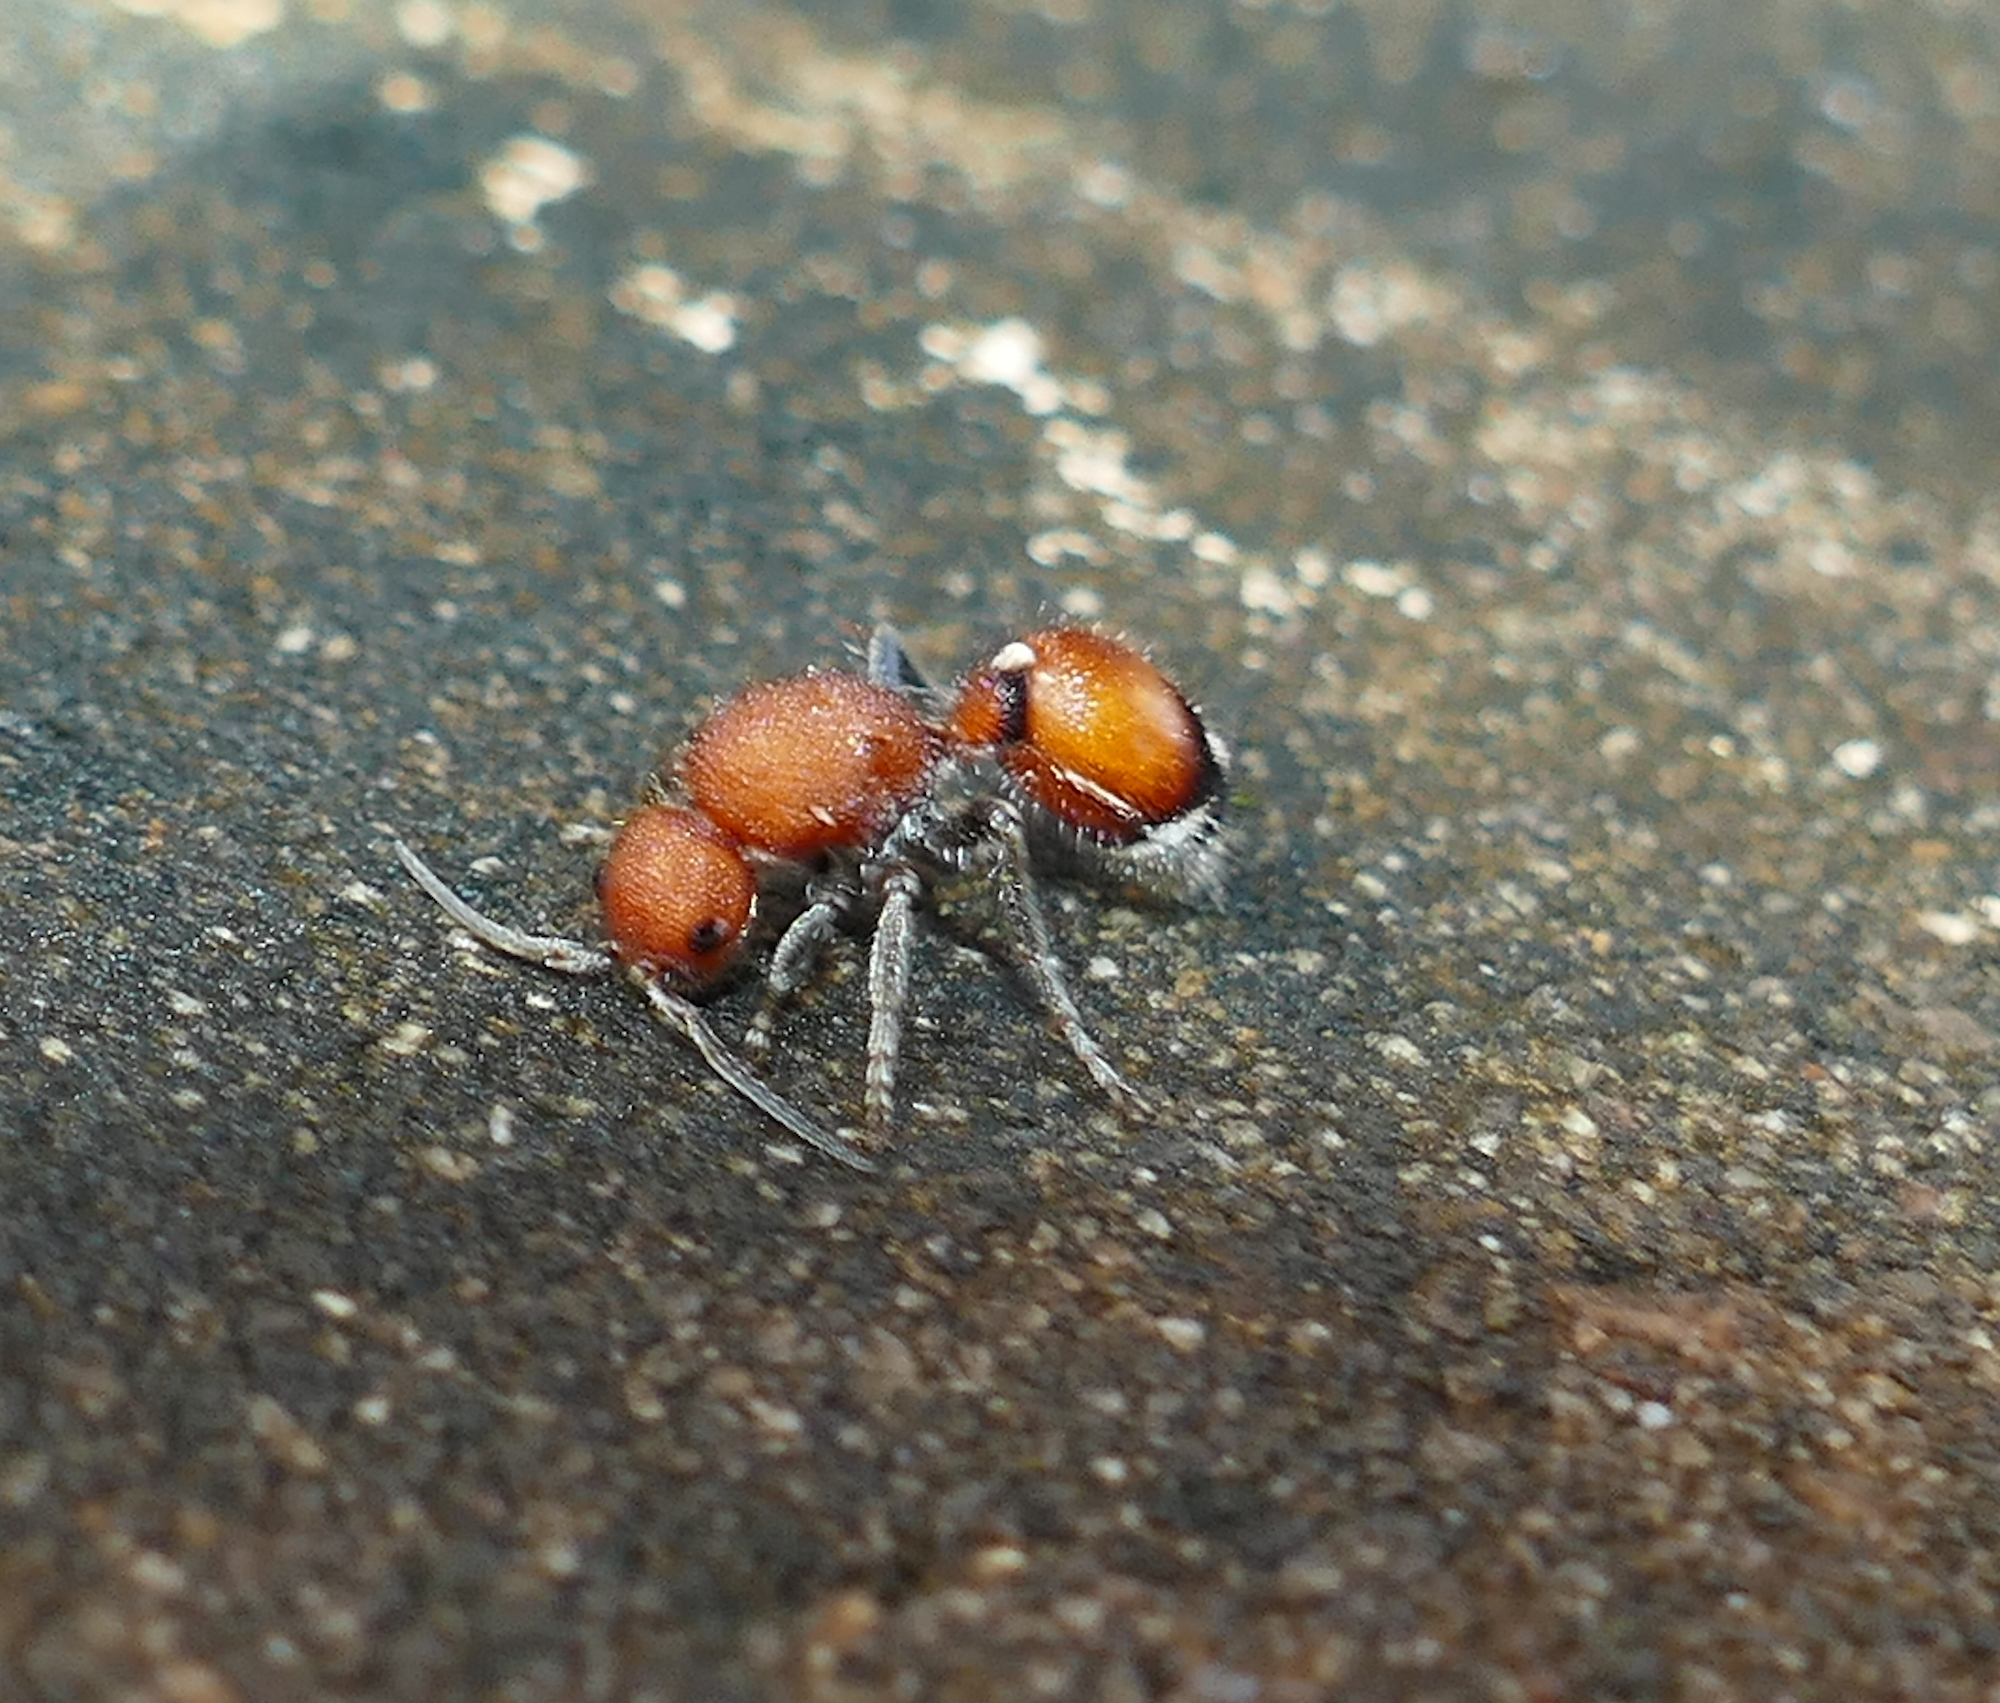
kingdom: Animalia
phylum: Arthropoda
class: Insecta
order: Hymenoptera
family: Mutillidae
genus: Sphaeropthalma
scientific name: Sphaeropthalma
